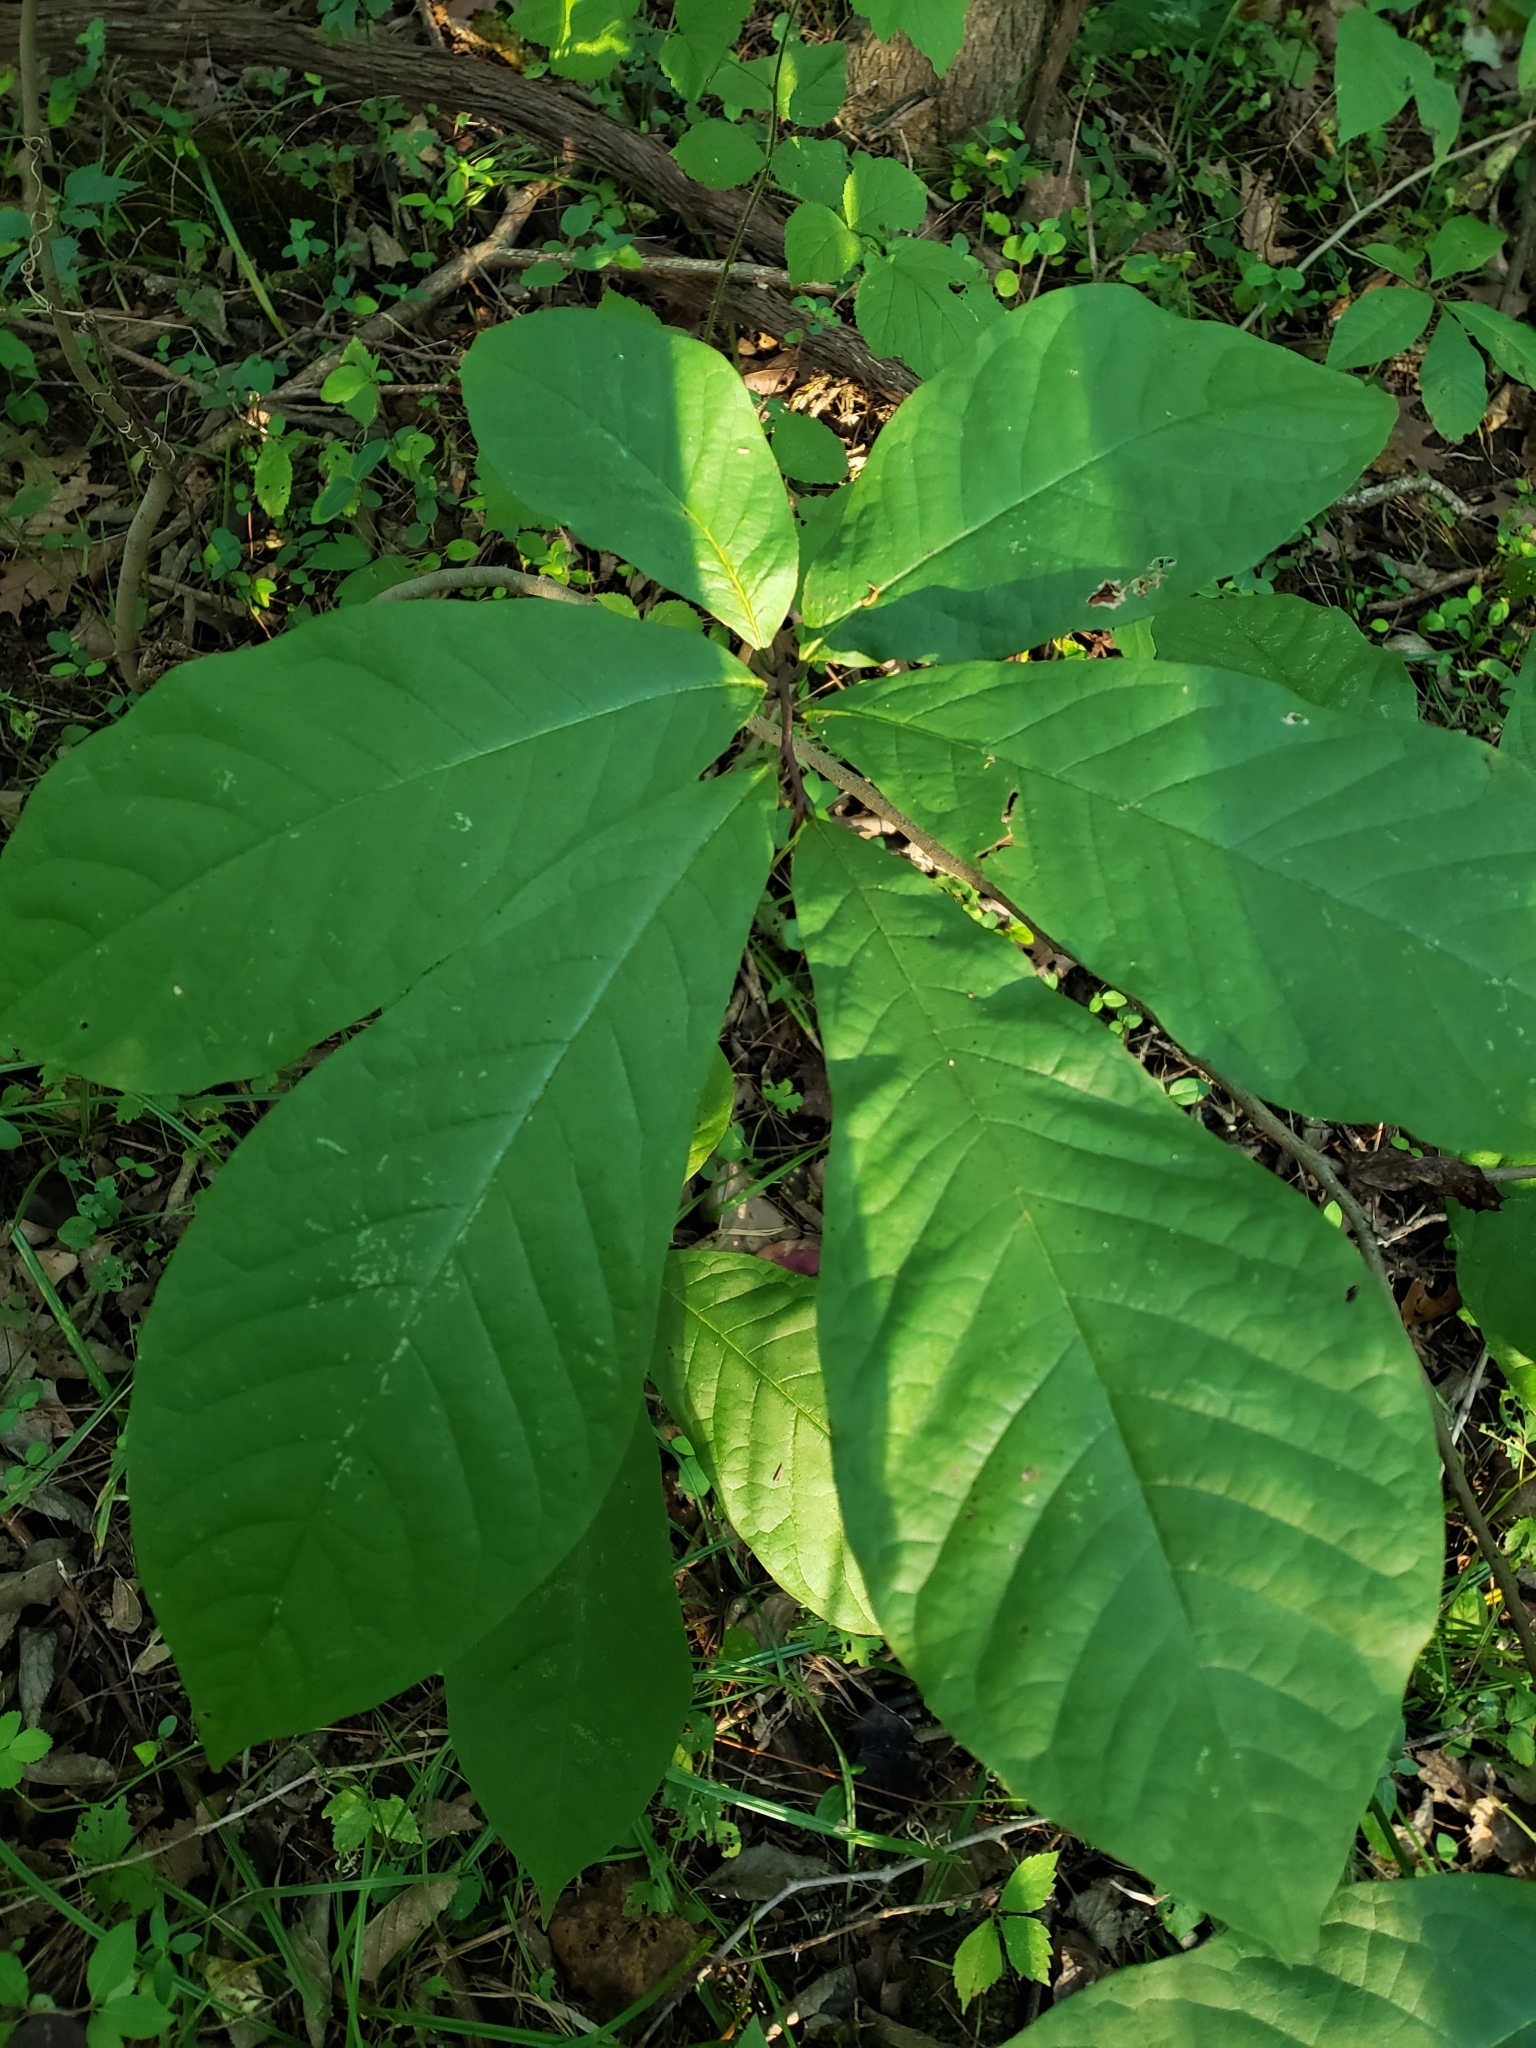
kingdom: Plantae
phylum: Tracheophyta
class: Magnoliopsida
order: Magnoliales
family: Annonaceae
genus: Asimina
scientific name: Asimina triloba
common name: Dog-banana
